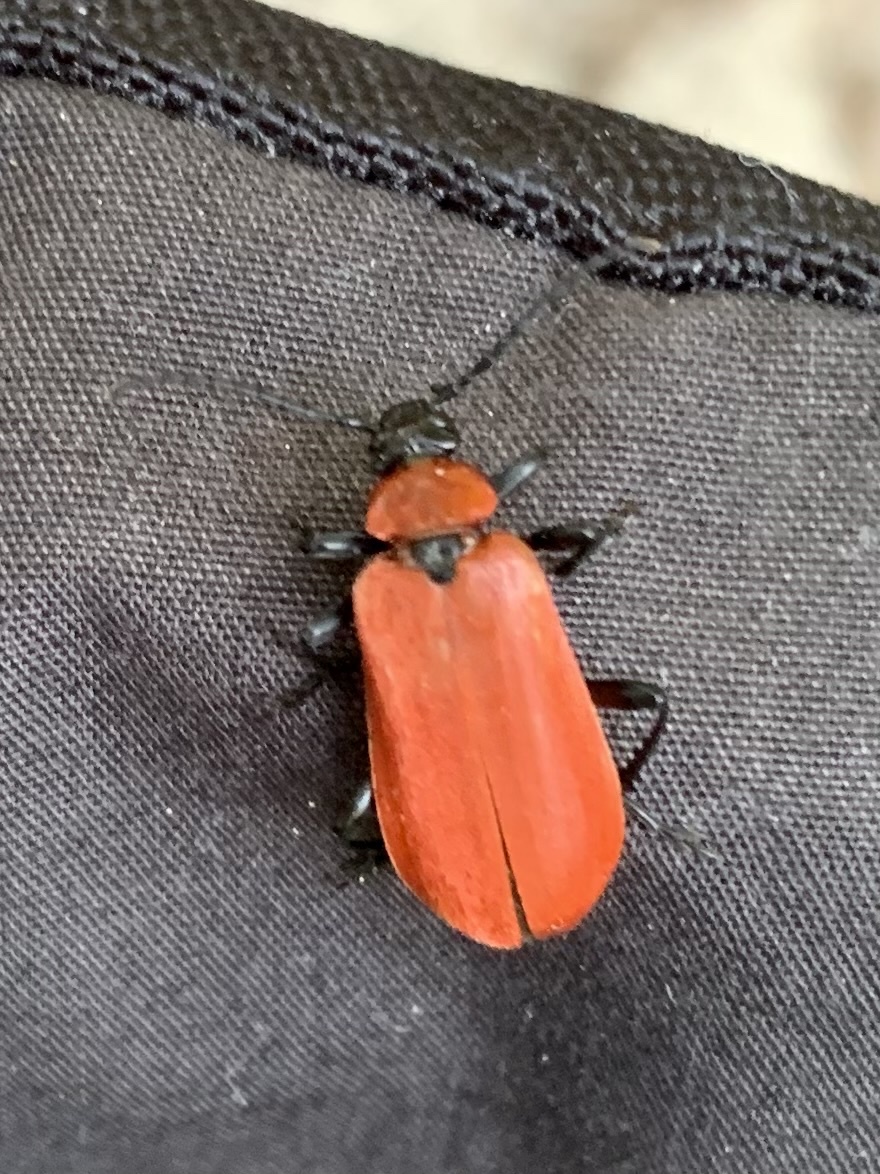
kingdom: Animalia
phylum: Arthropoda
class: Insecta
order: Coleoptera
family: Pyrochroidae
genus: Pyrochroa
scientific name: Pyrochroa coccinea
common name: Black-headed cardinal beetle
